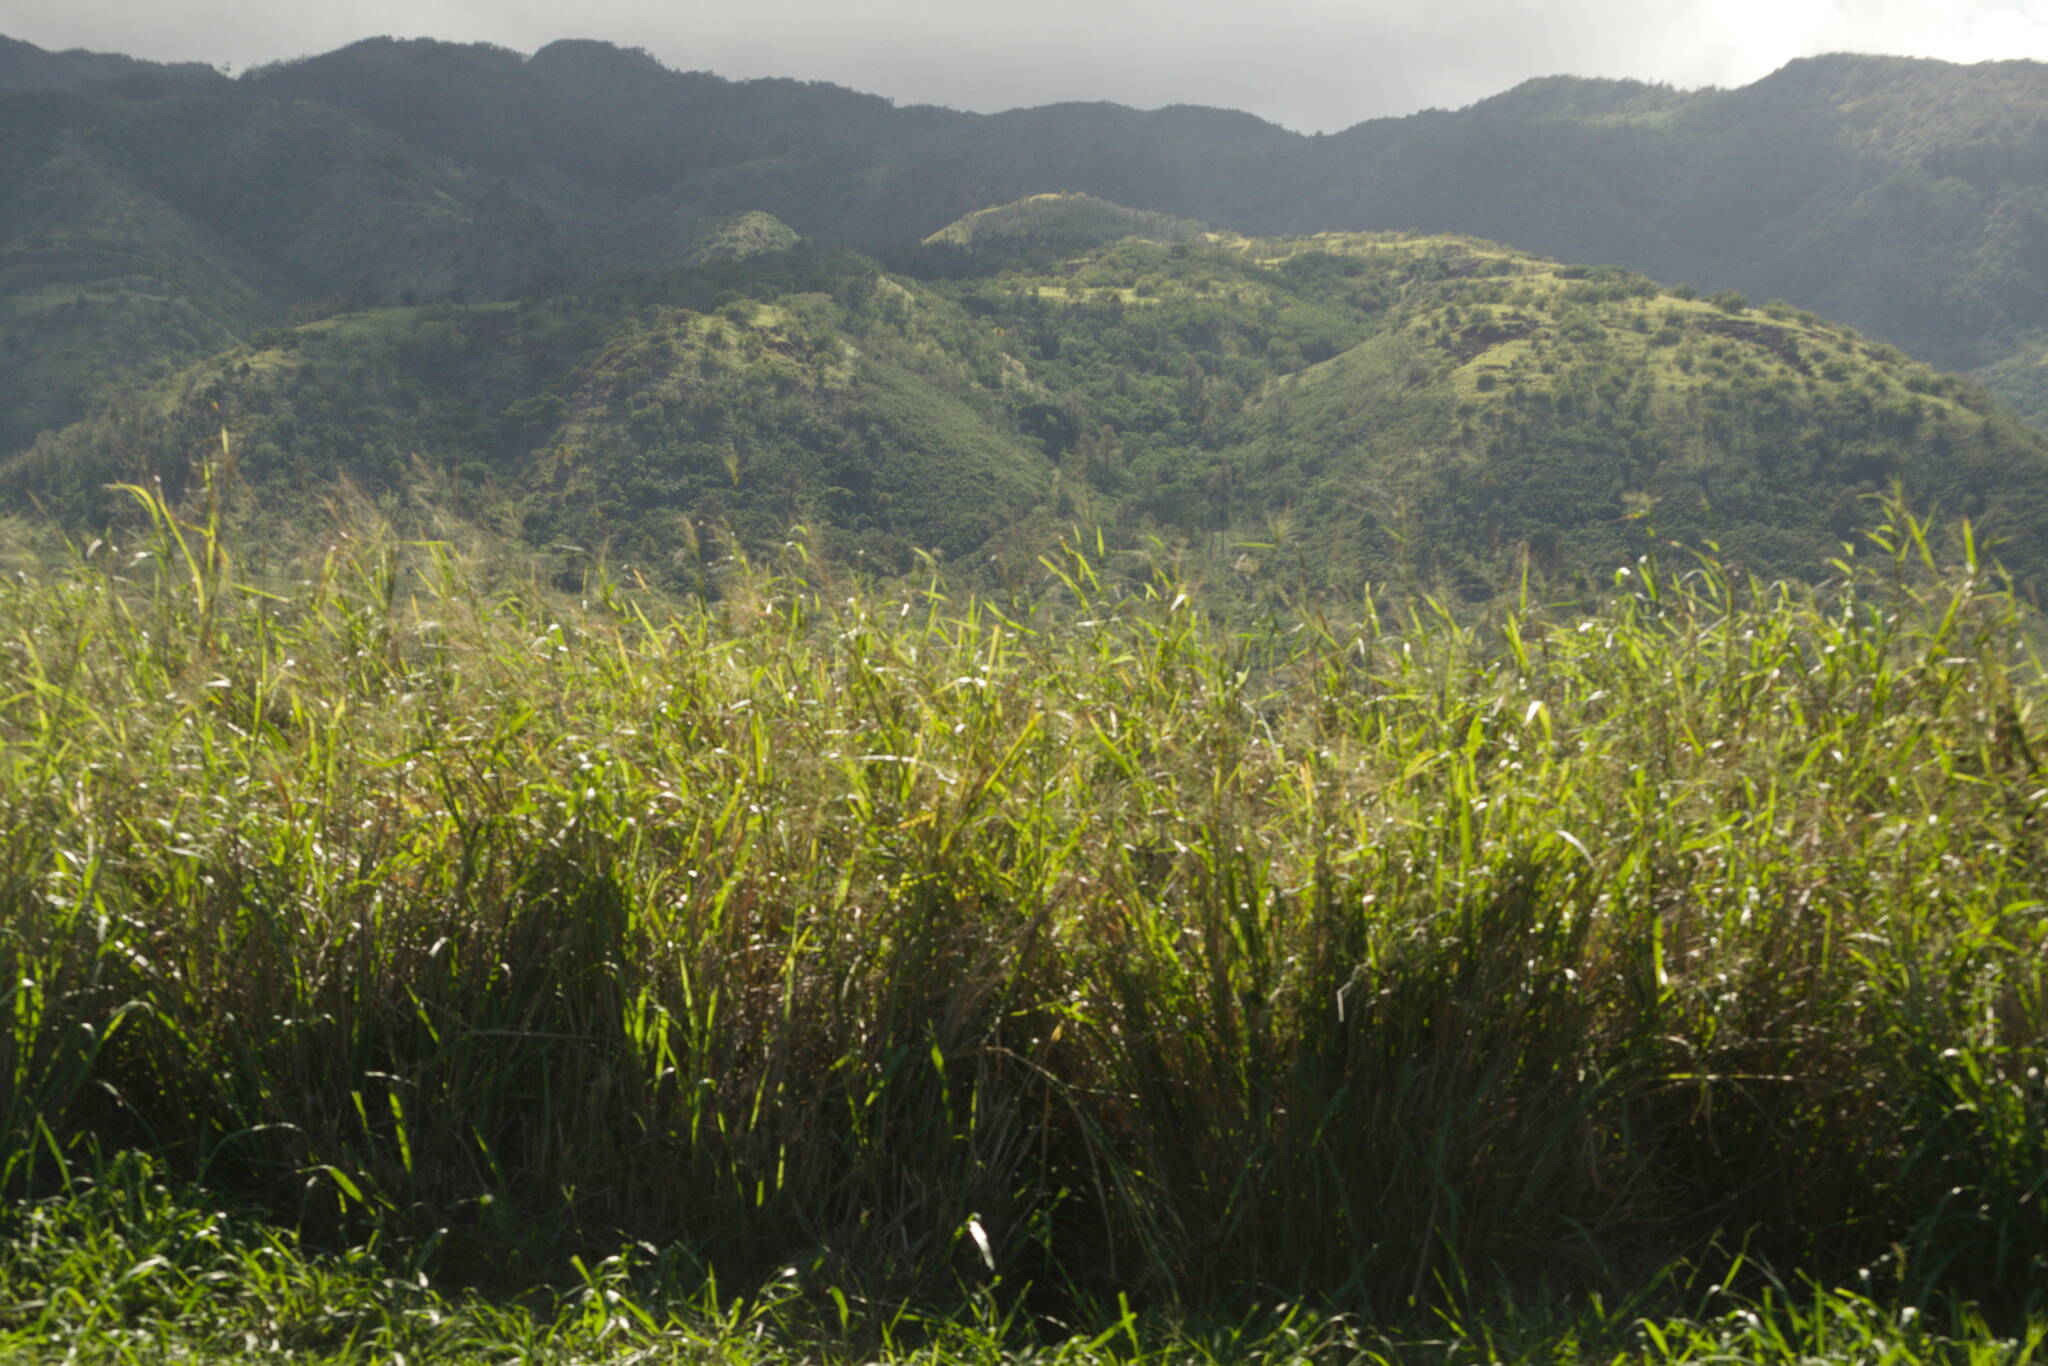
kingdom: Plantae
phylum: Tracheophyta
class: Liliopsida
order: Poales
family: Poaceae
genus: Megathyrsus
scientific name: Megathyrsus maximus
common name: Guineagrass
